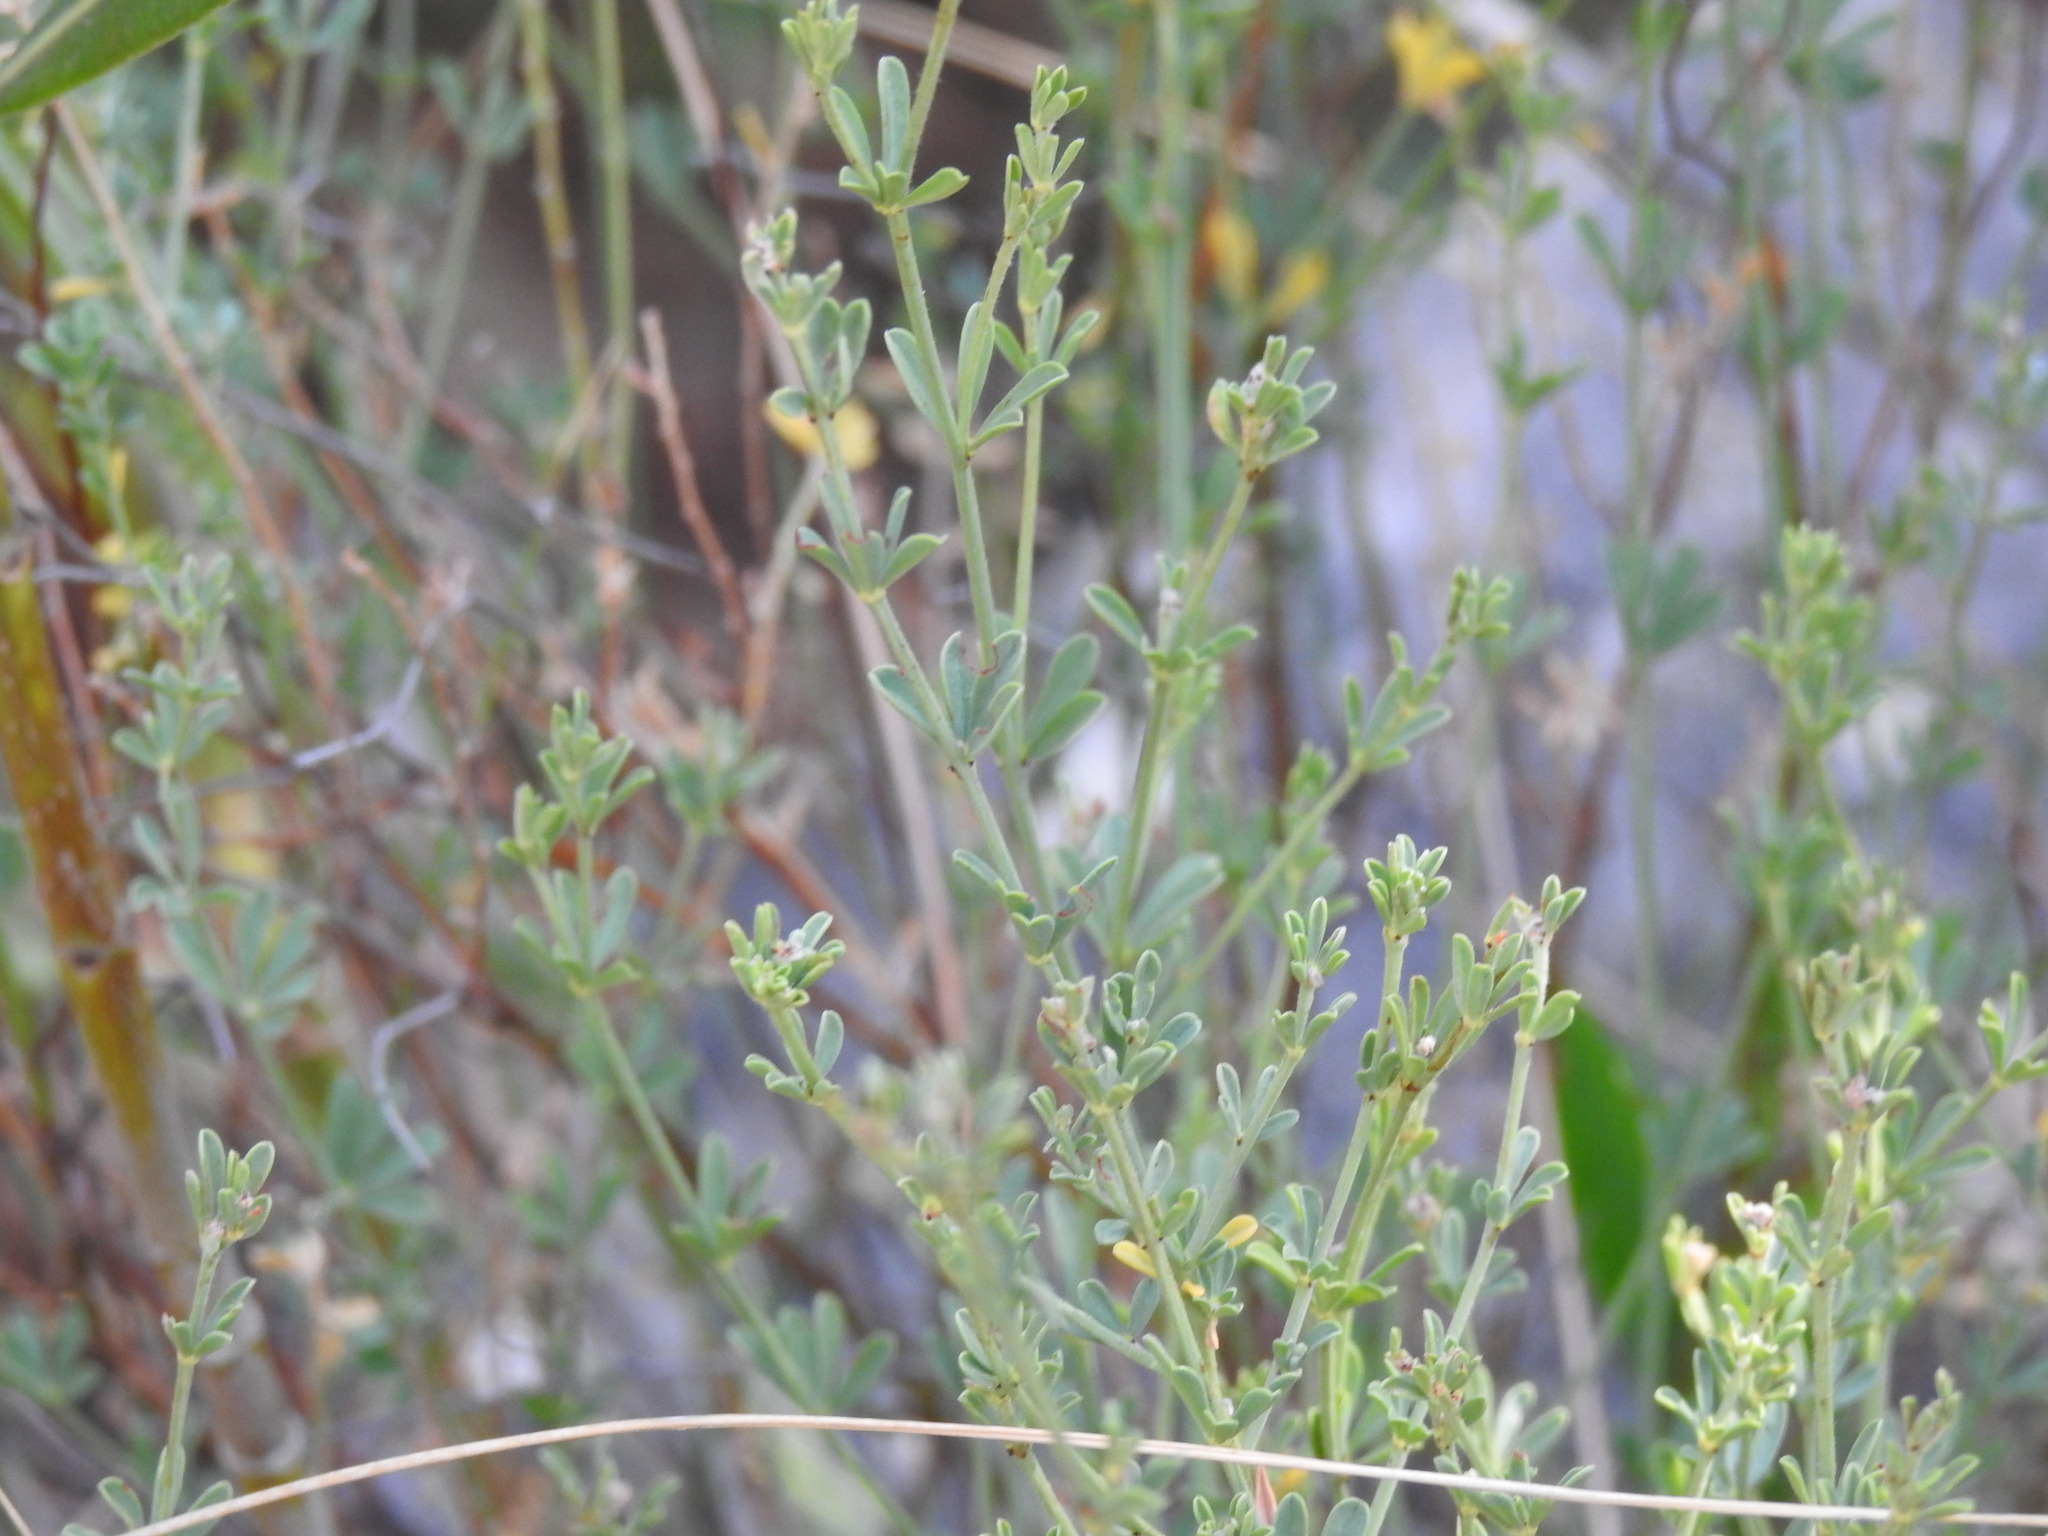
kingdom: Plantae
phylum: Tracheophyta
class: Magnoliopsida
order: Fabales
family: Fabaceae
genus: Lotus
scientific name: Lotus dorycnium
